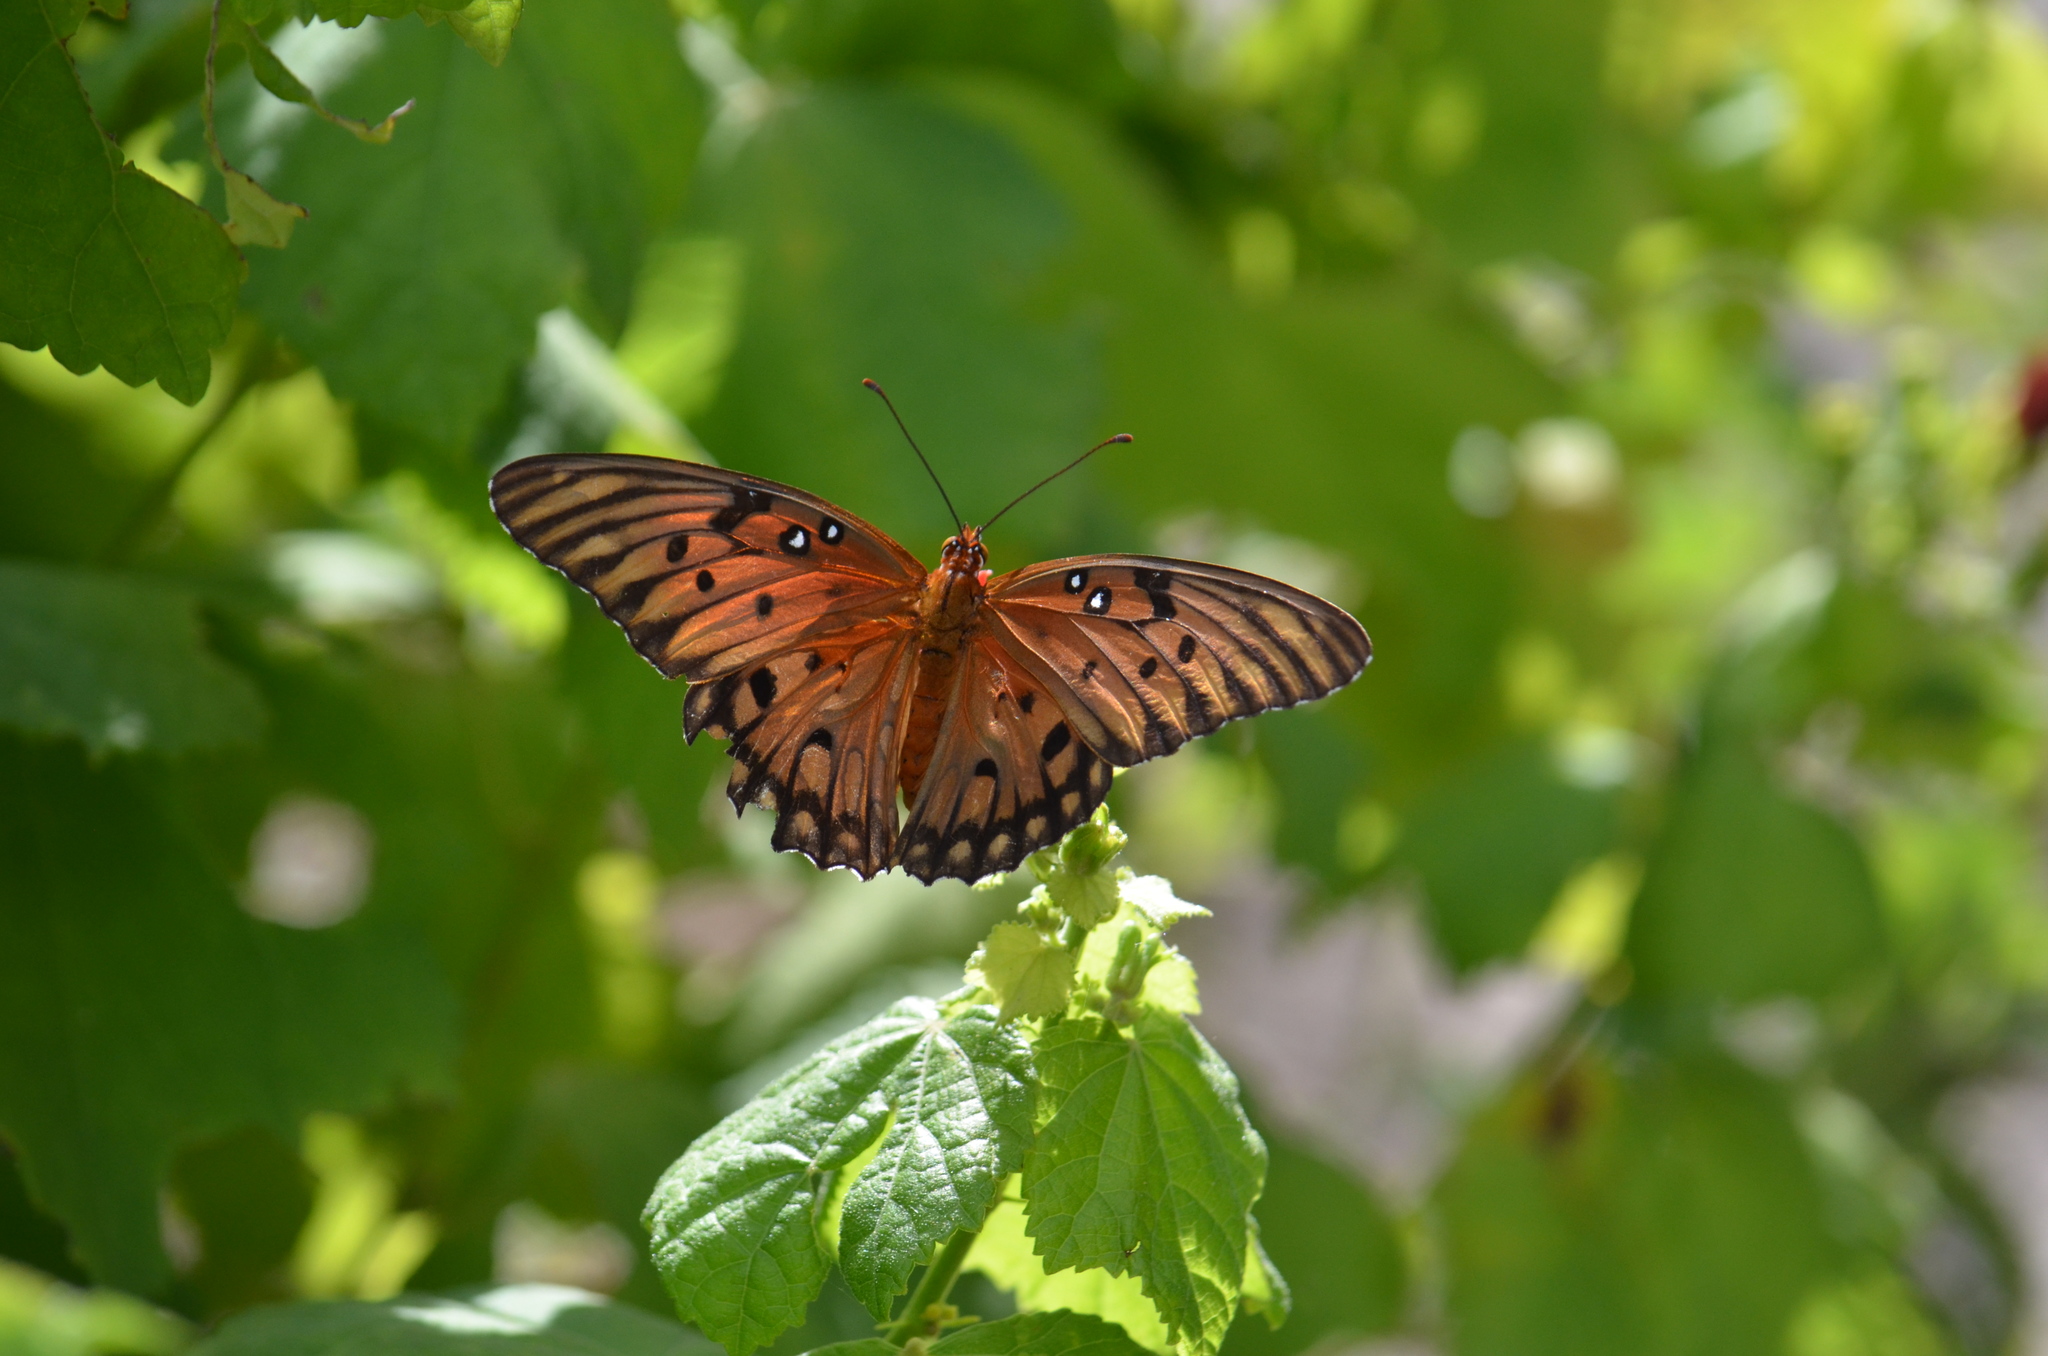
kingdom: Animalia
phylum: Arthropoda
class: Insecta
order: Lepidoptera
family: Nymphalidae
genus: Dione
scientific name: Dione vanillae
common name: Gulf fritillary
